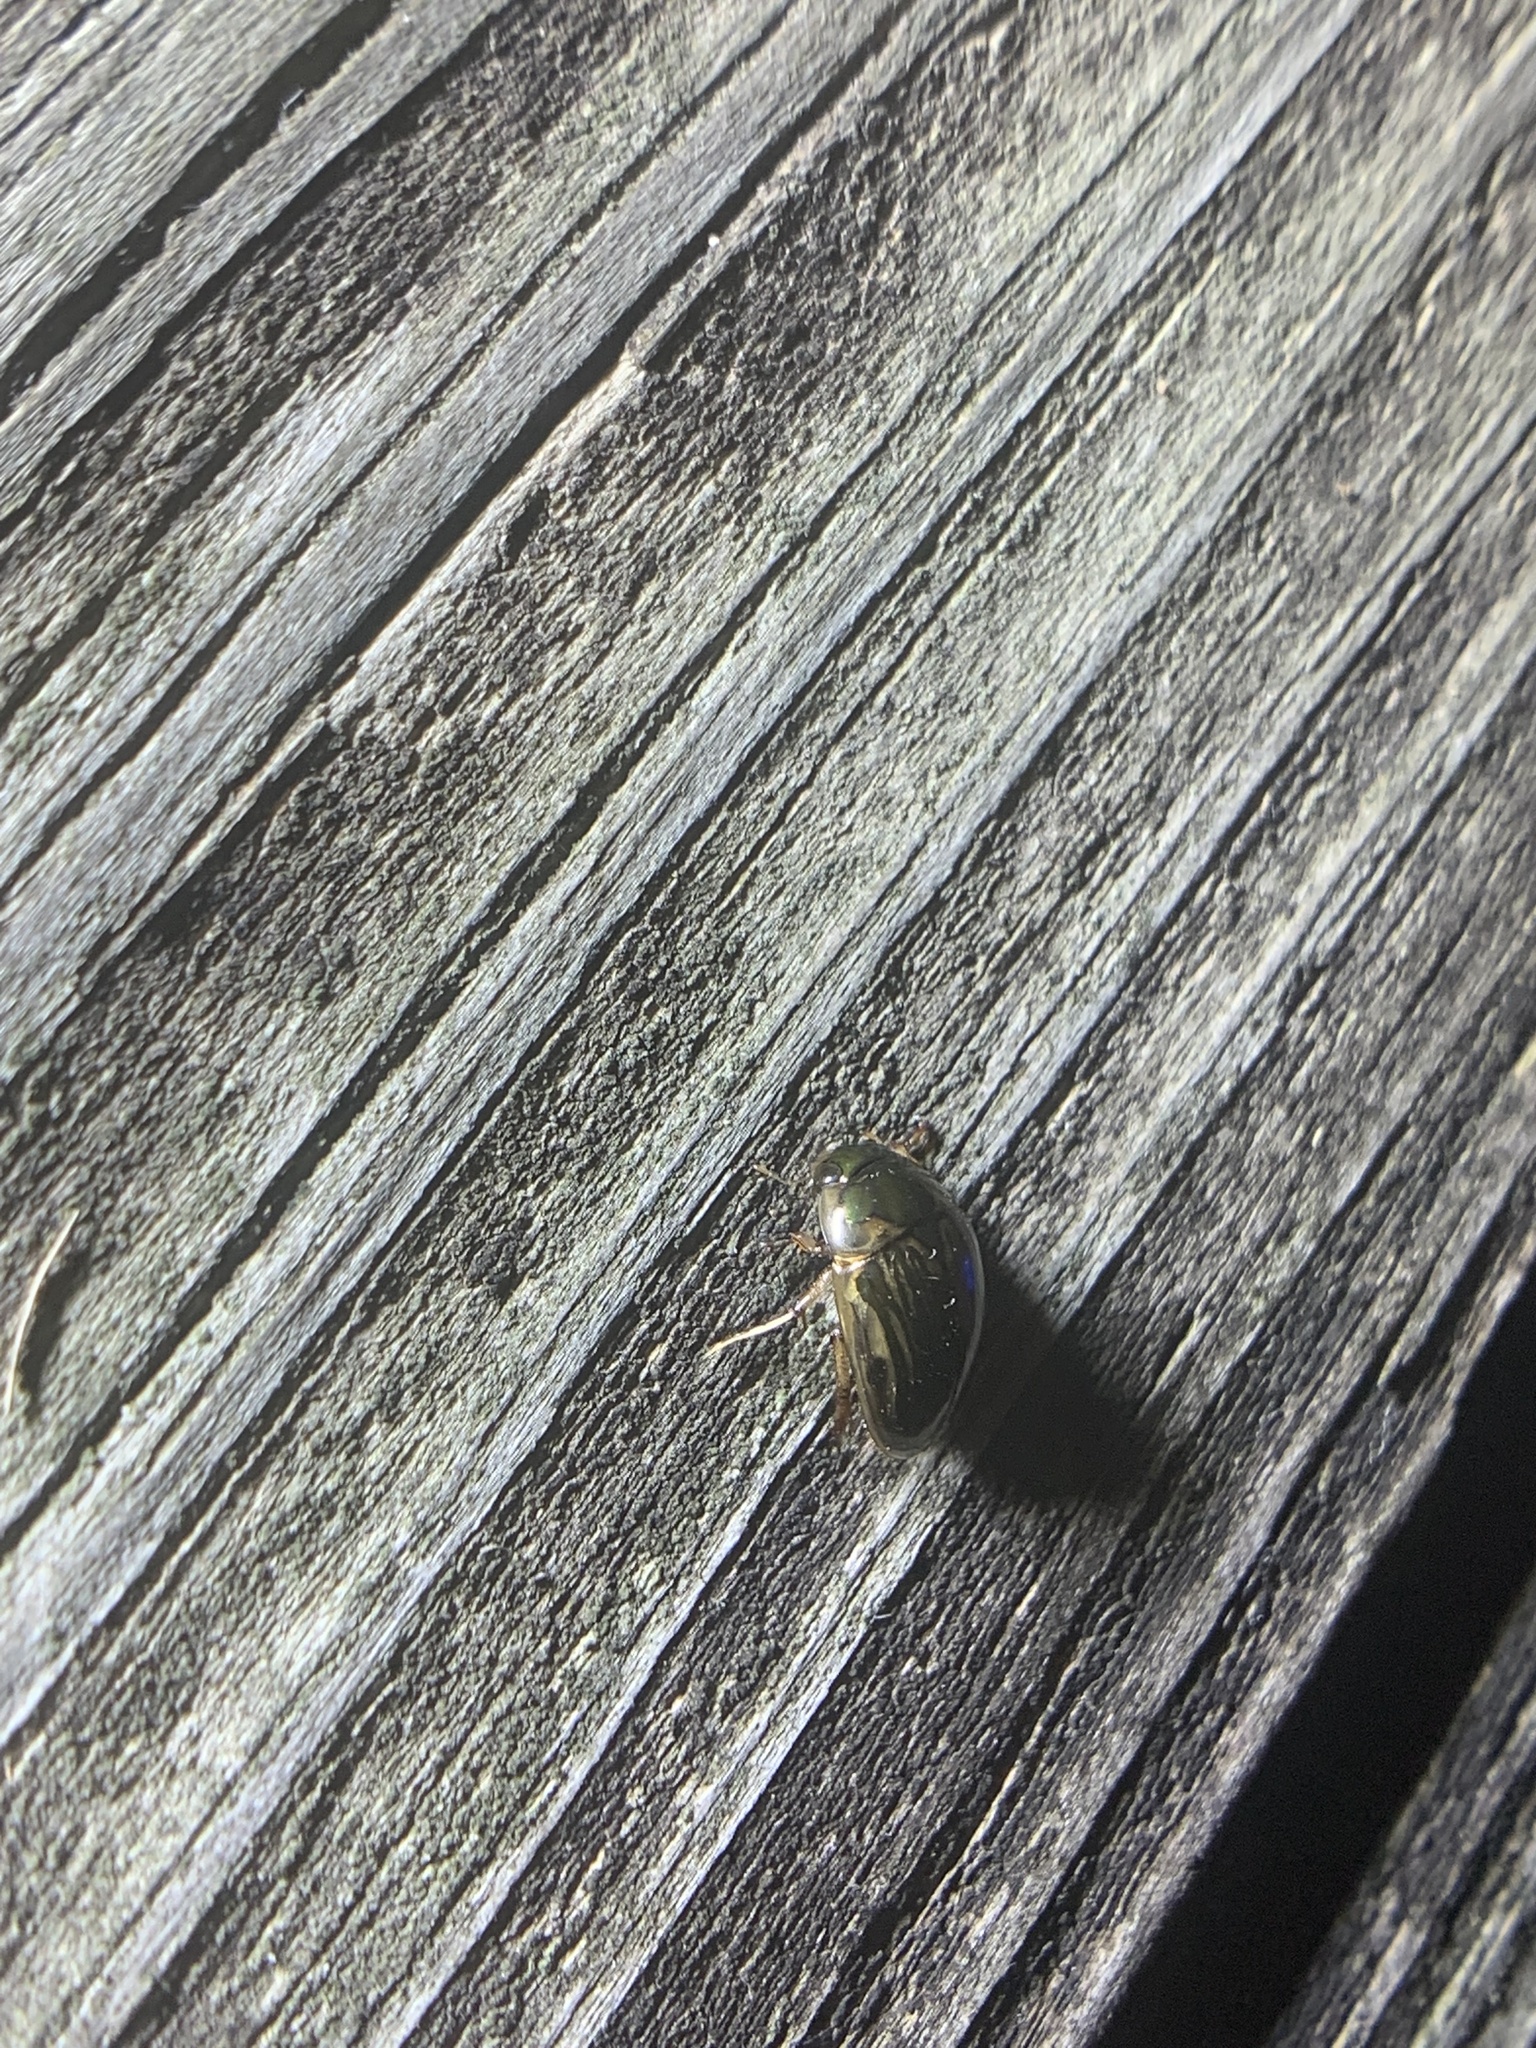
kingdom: Animalia
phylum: Arthropoda
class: Insecta
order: Coleoptera
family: Hydrophilidae
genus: Tropisternus
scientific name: Tropisternus collaris
